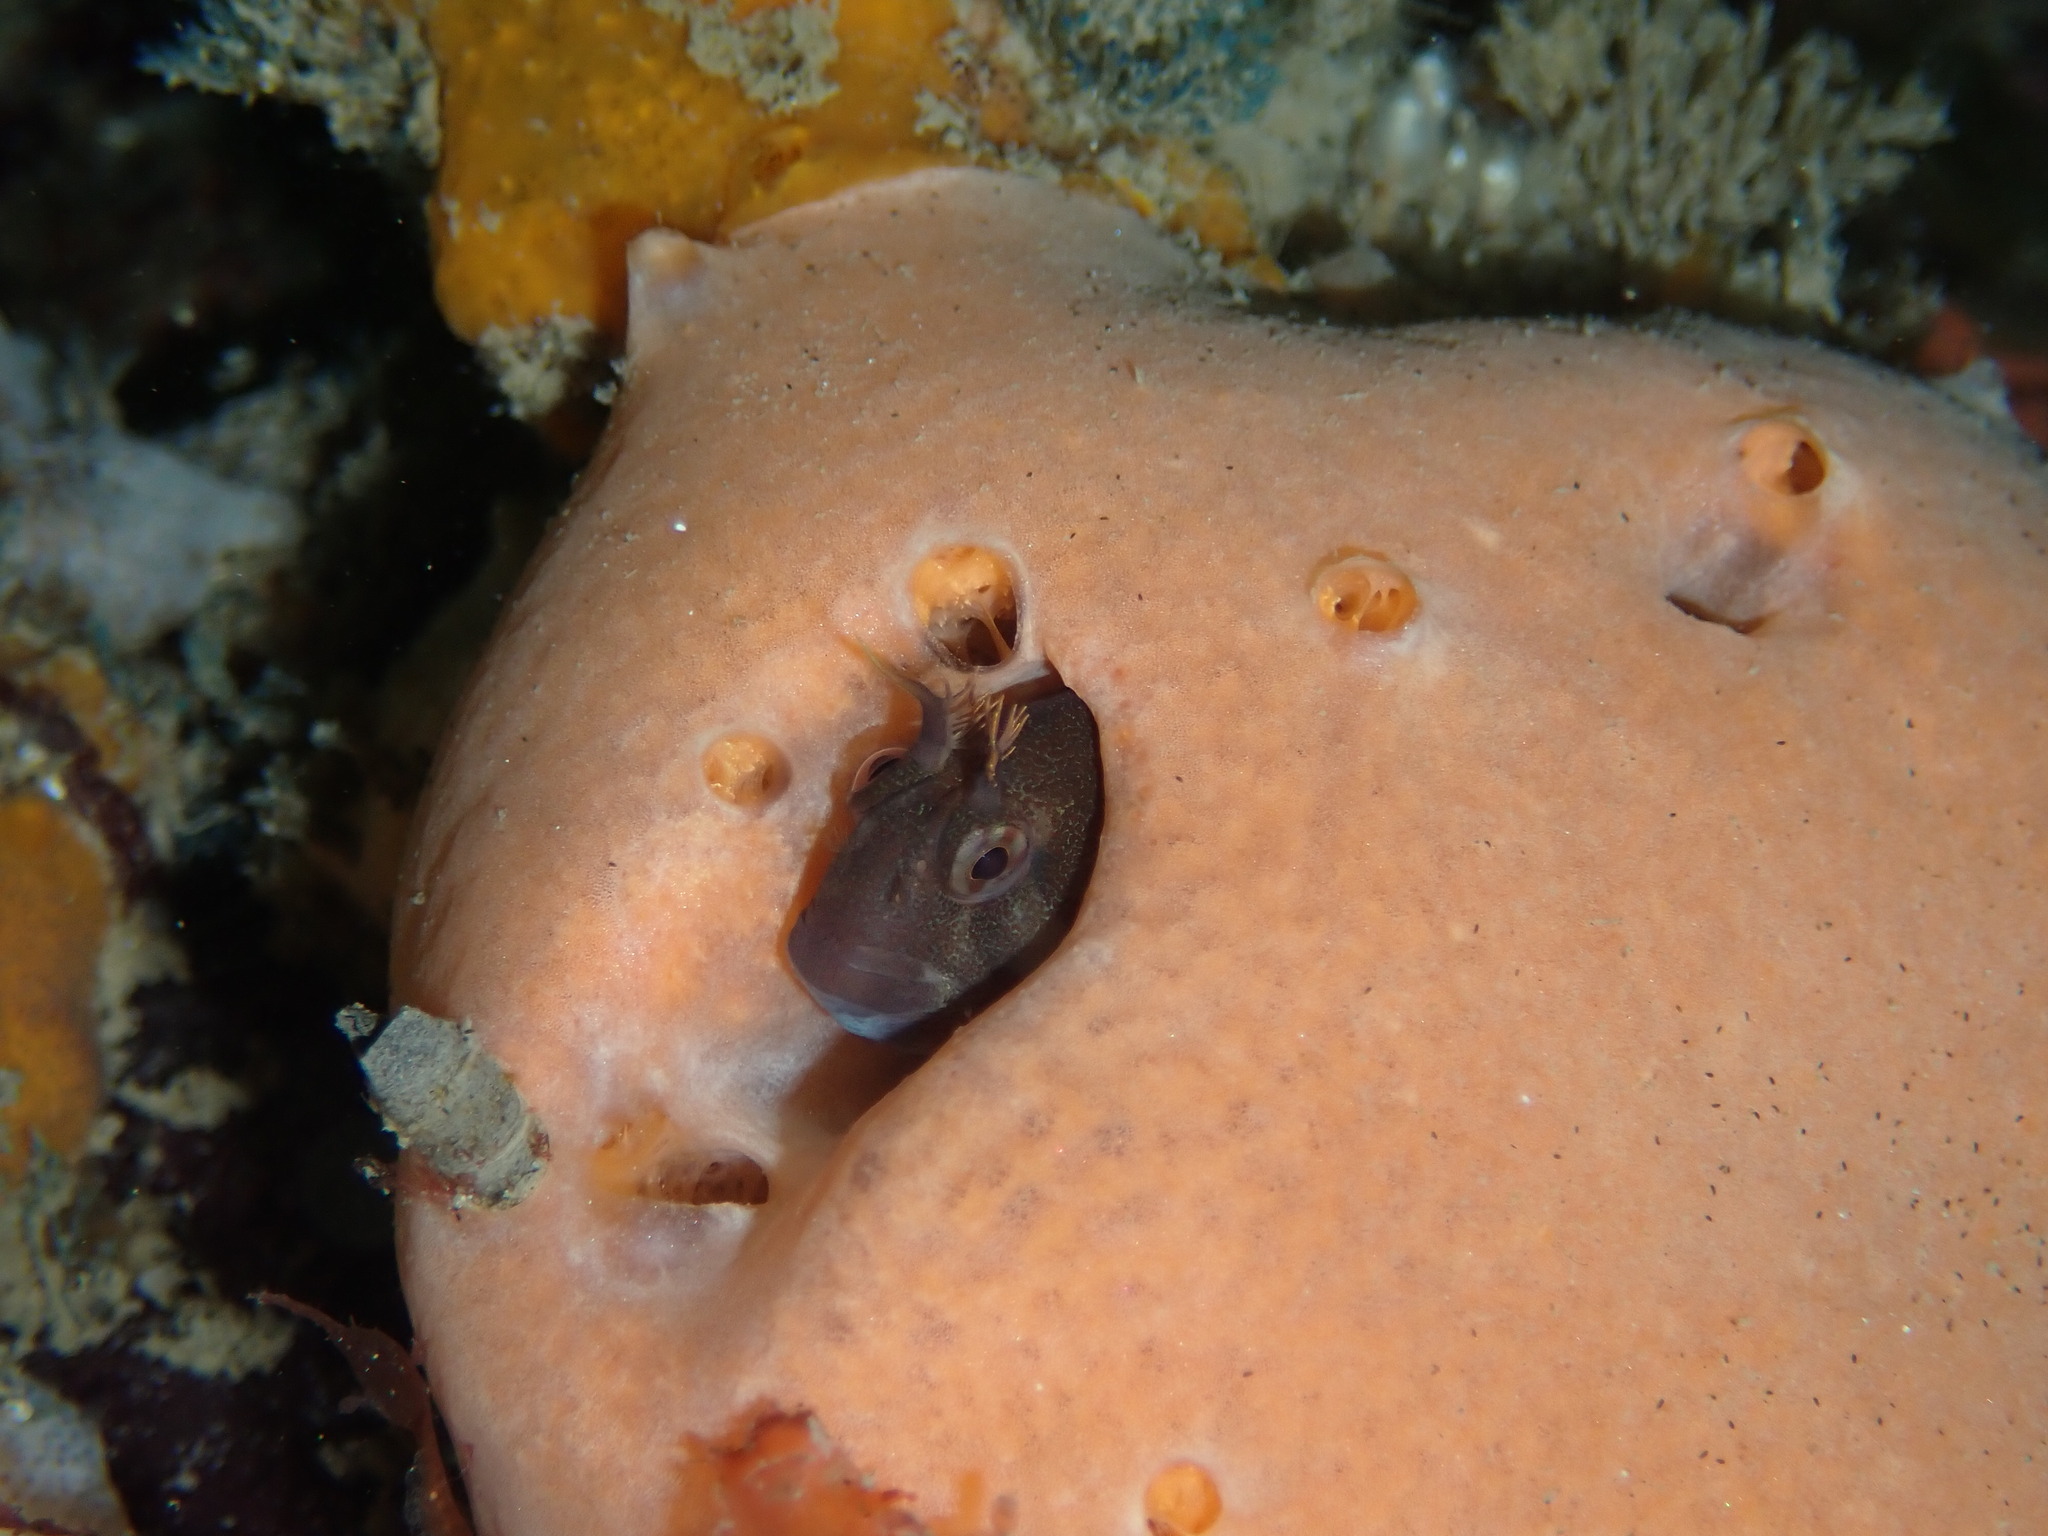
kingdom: Animalia
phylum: Chordata
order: Perciformes
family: Blenniidae
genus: Parablennius
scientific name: Parablennius tasmanianus
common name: Tasmanian blenny
